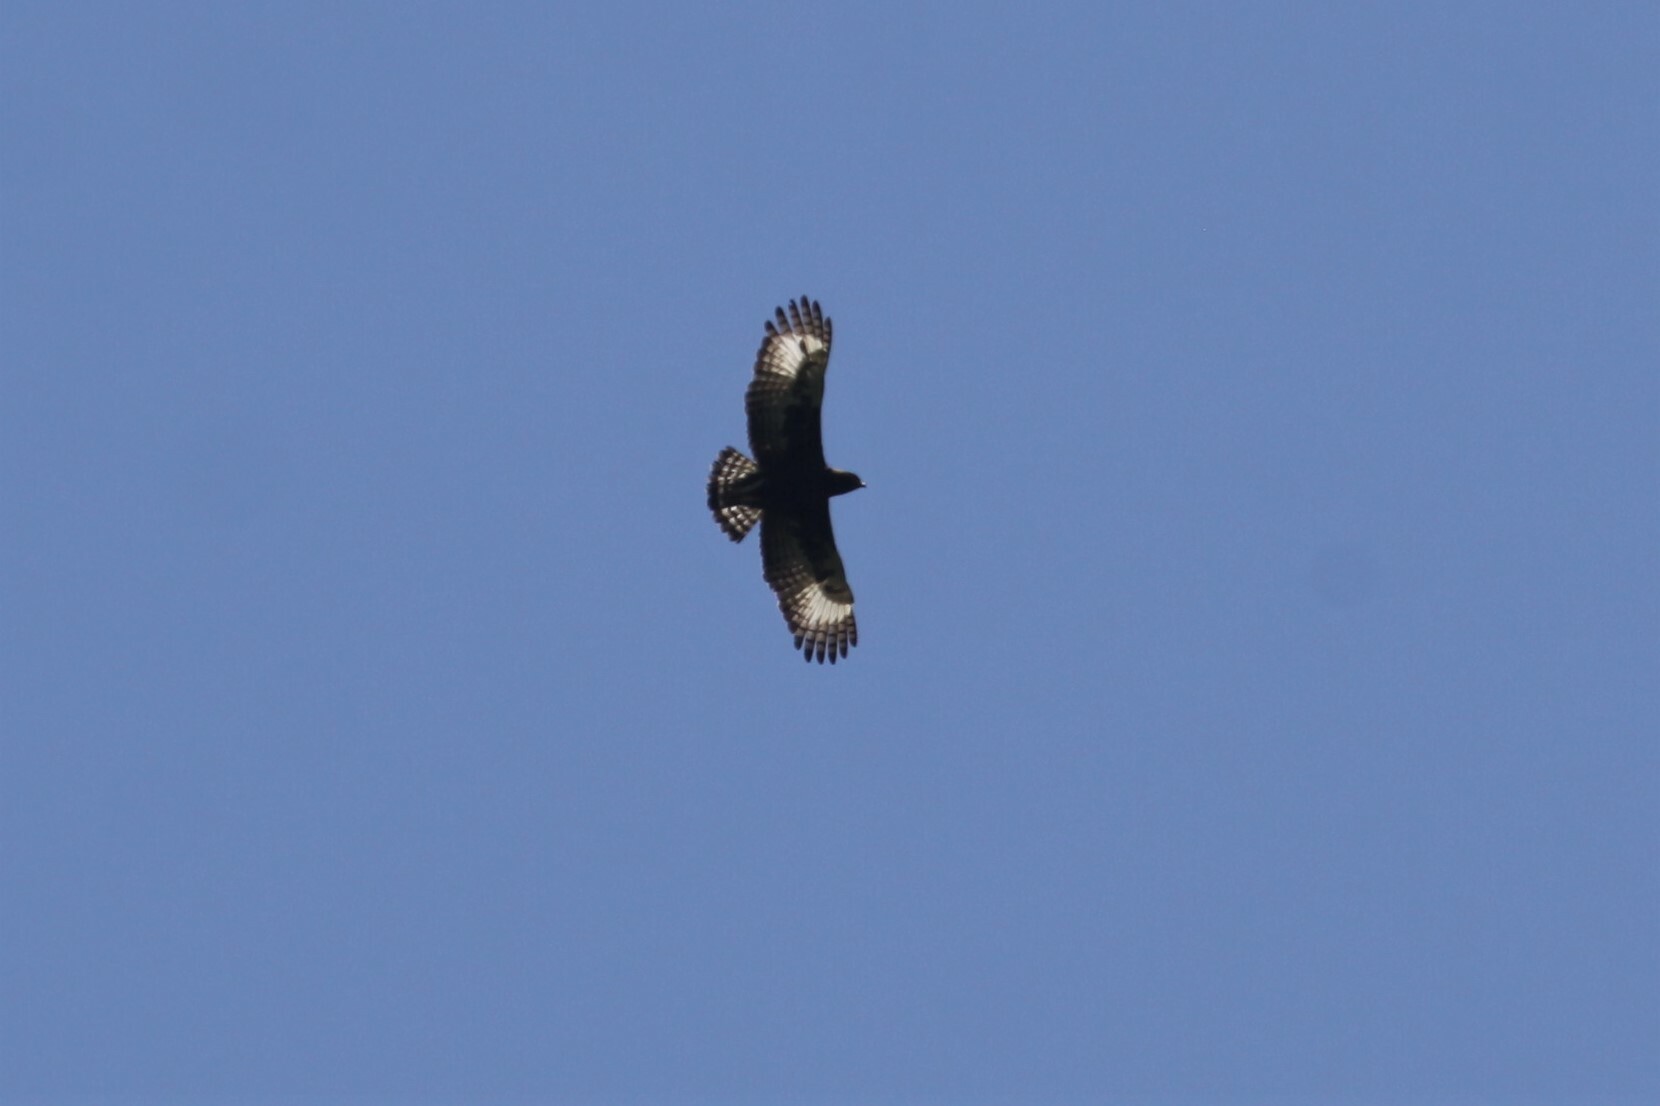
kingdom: Animalia
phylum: Chordata
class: Aves
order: Accipitriformes
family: Accipitridae
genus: Lophaetus
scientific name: Lophaetus occipitalis
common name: Long-crested eagle
